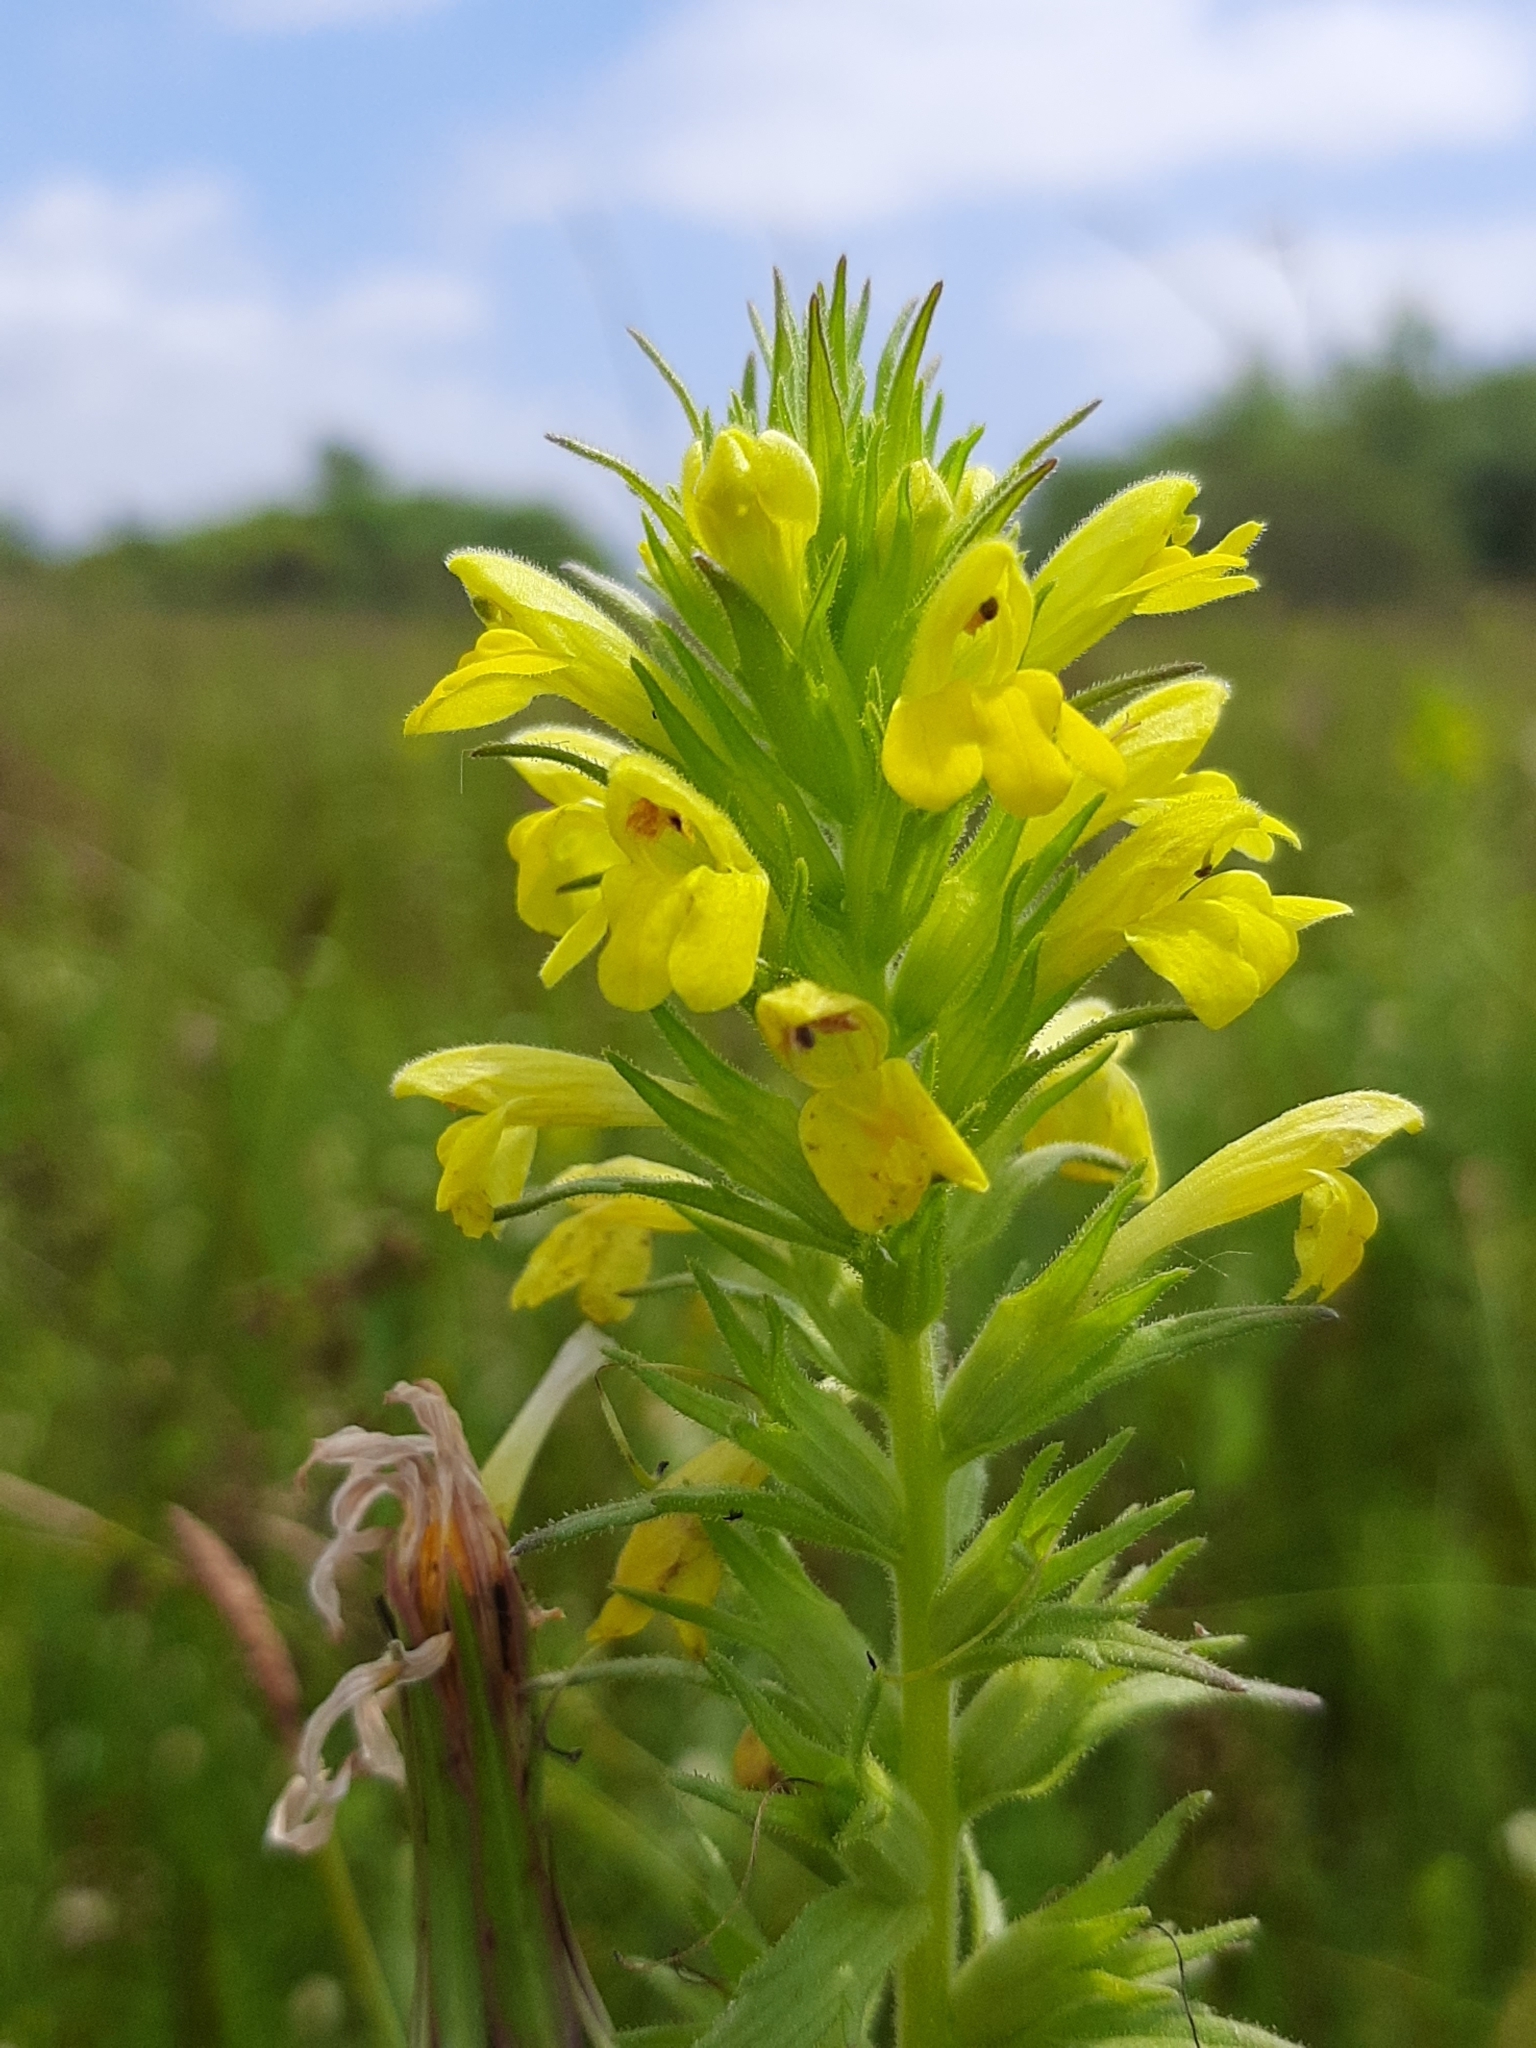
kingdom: Plantae
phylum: Tracheophyta
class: Magnoliopsida
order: Lamiales
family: Orobanchaceae
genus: Bellardia
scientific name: Bellardia viscosa
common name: Sticky parentucellia
